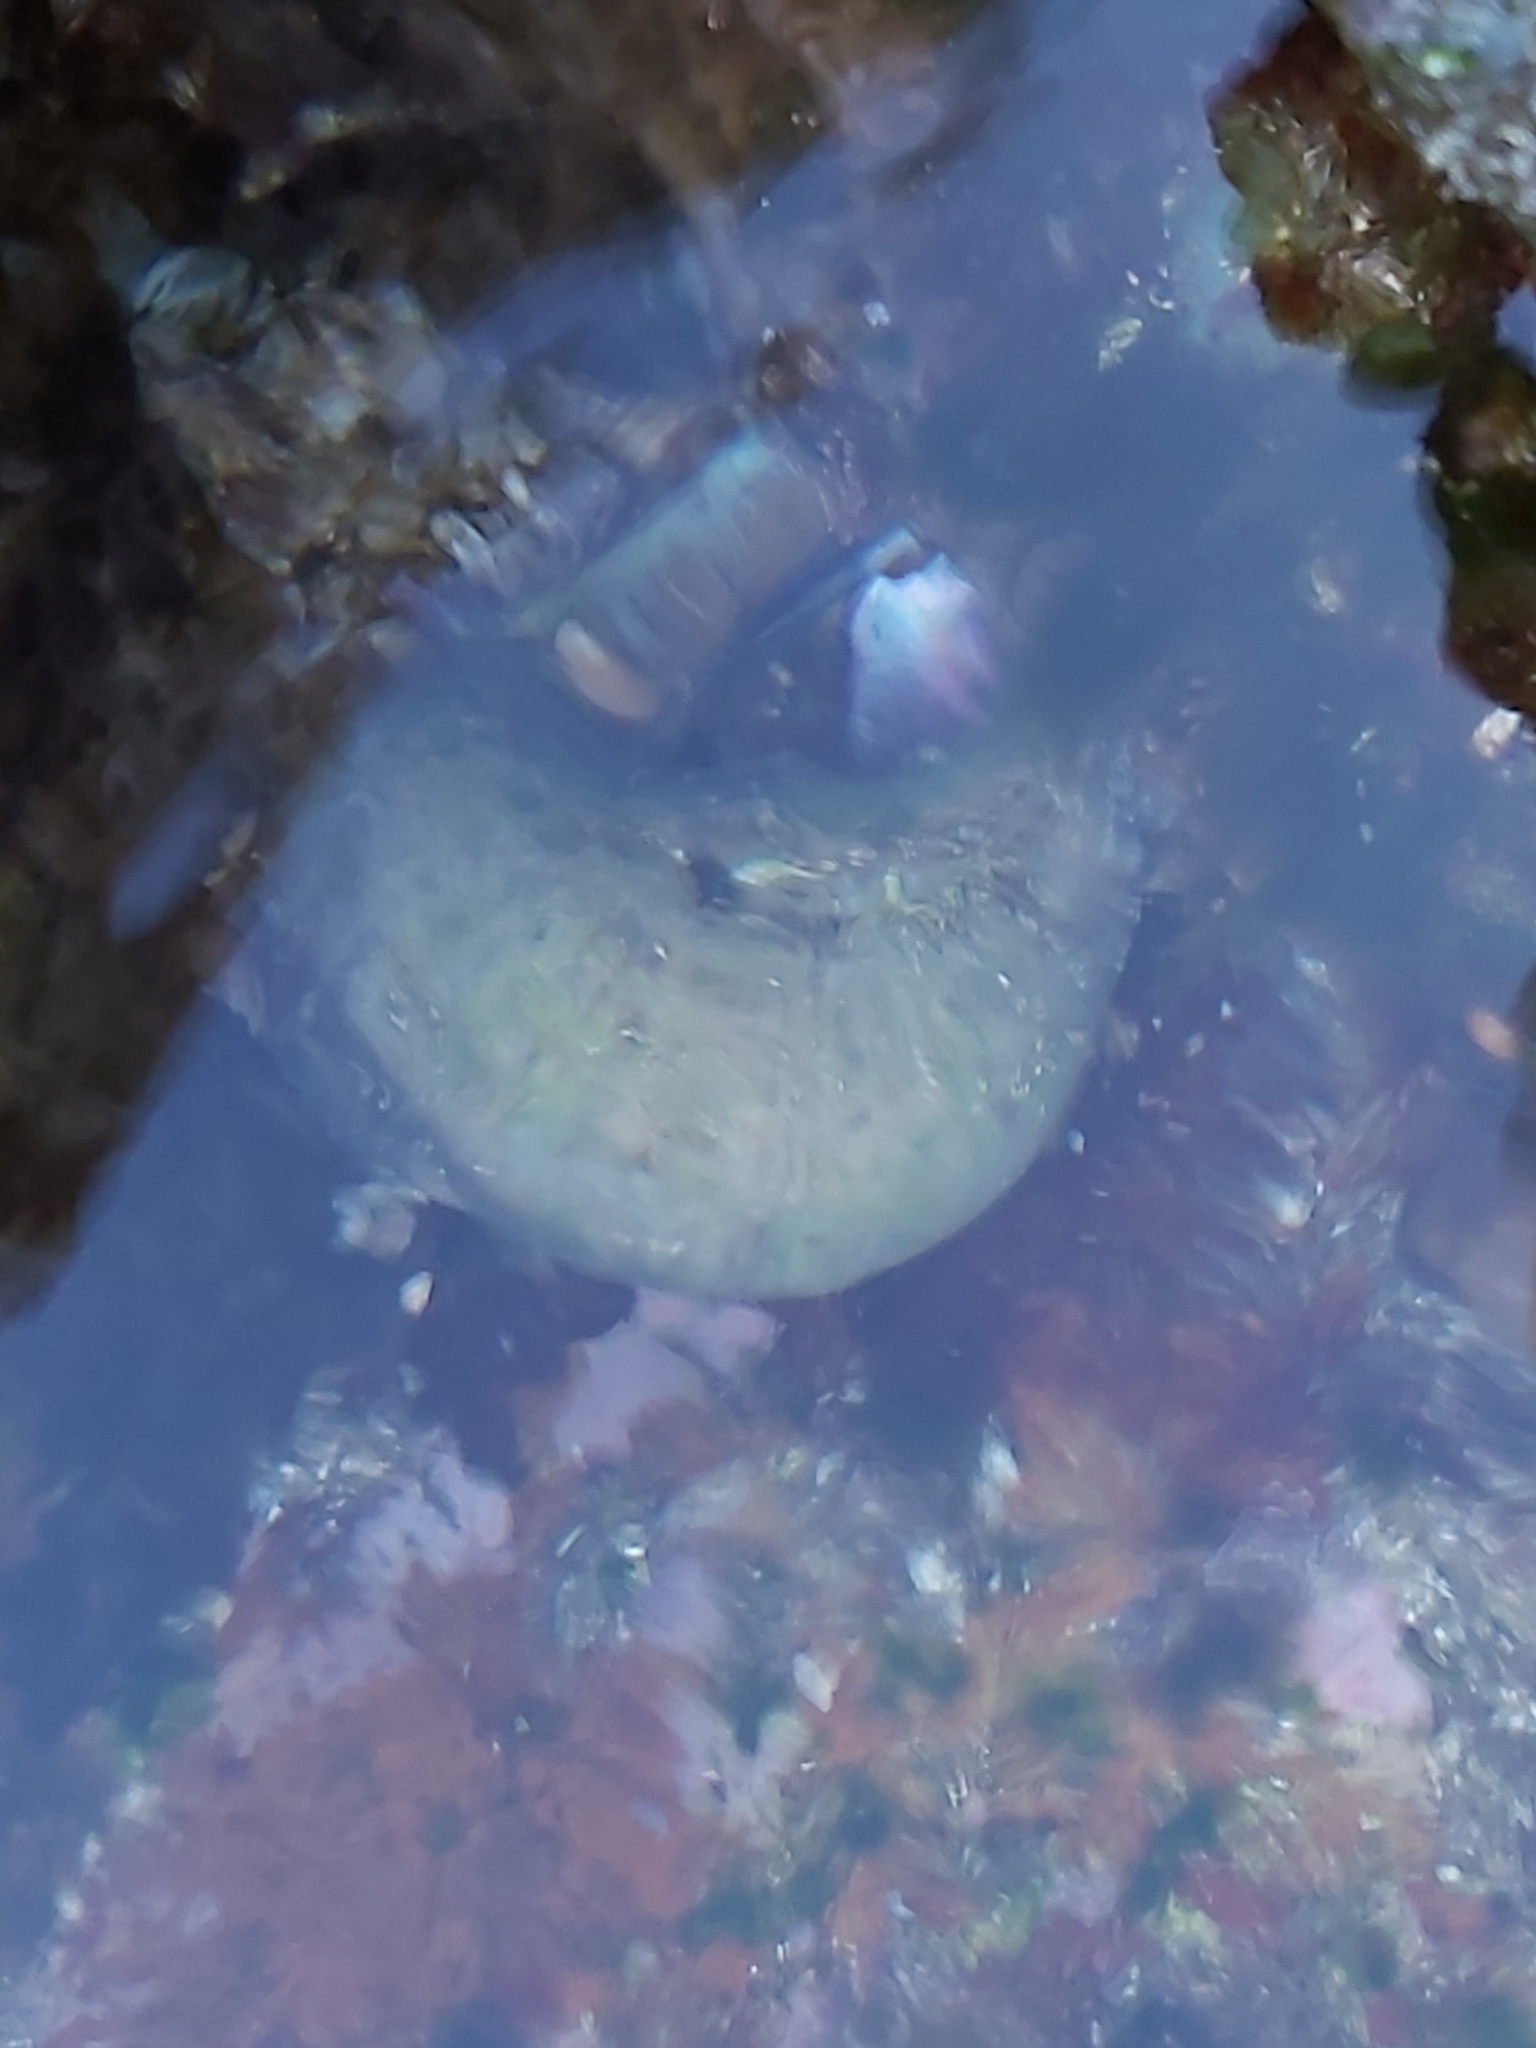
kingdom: Animalia
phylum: Mollusca
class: Gastropoda
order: Trochida
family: Turbinidae
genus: Turbo
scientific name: Turbo militaris
